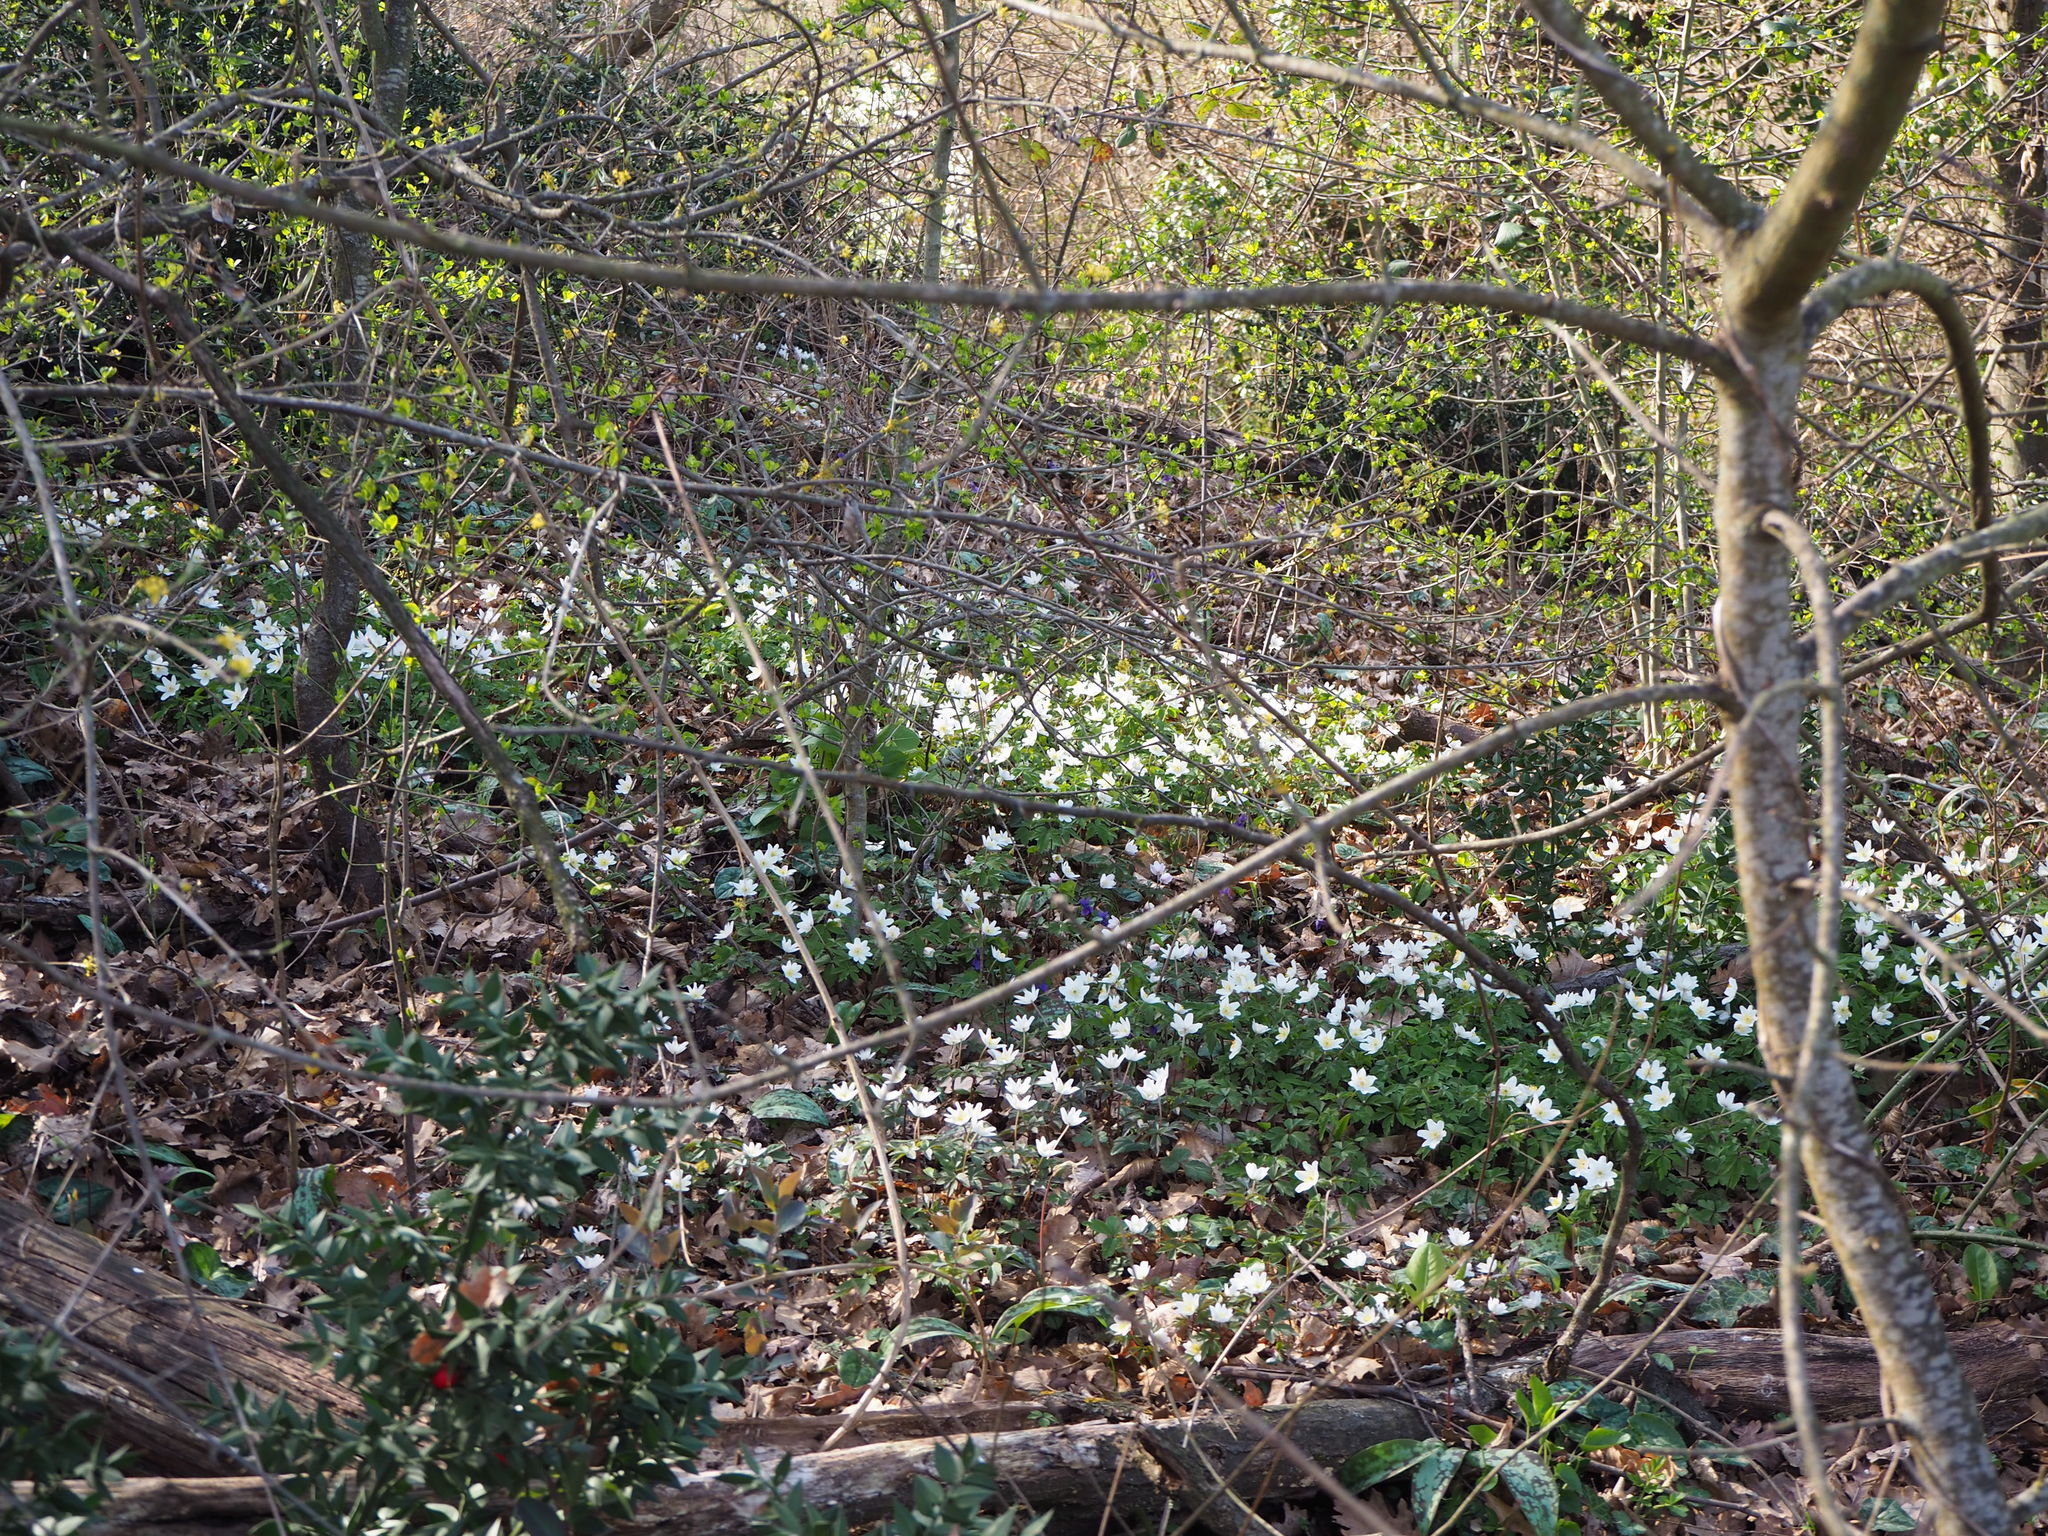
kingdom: Plantae
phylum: Tracheophyta
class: Magnoliopsida
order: Ranunculales
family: Ranunculaceae
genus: Anemone
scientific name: Anemone nemorosa
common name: Wood anemone
